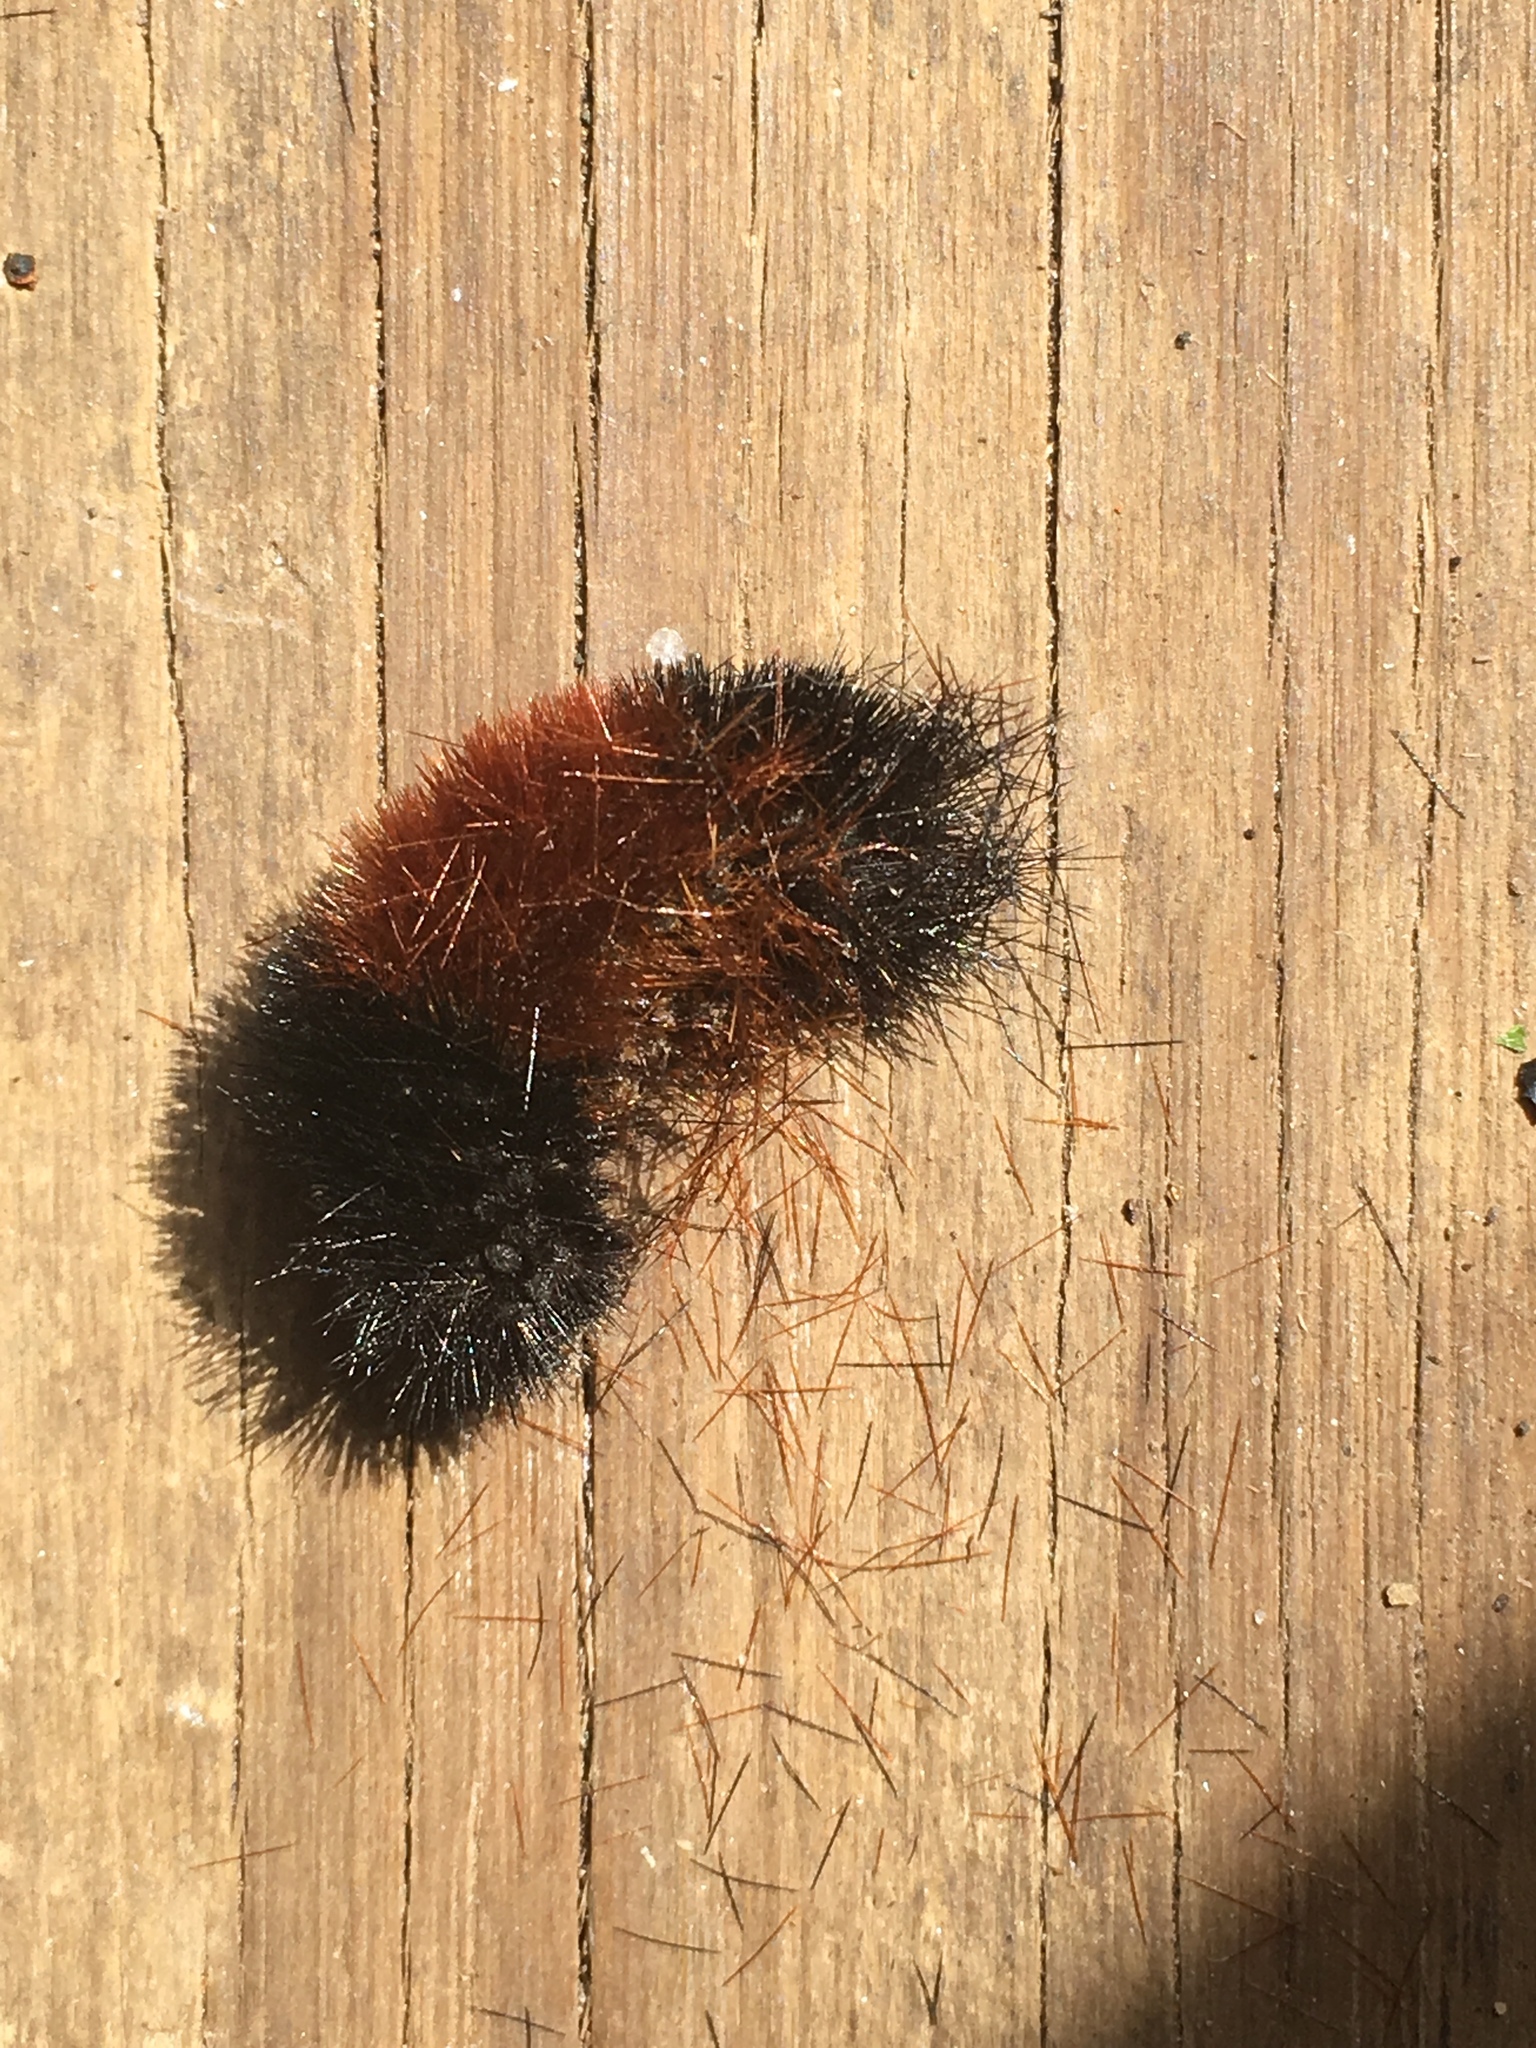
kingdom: Animalia
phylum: Arthropoda
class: Insecta
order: Lepidoptera
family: Erebidae
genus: Pyrrharctia
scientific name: Pyrrharctia isabella
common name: Isabella tiger moth
